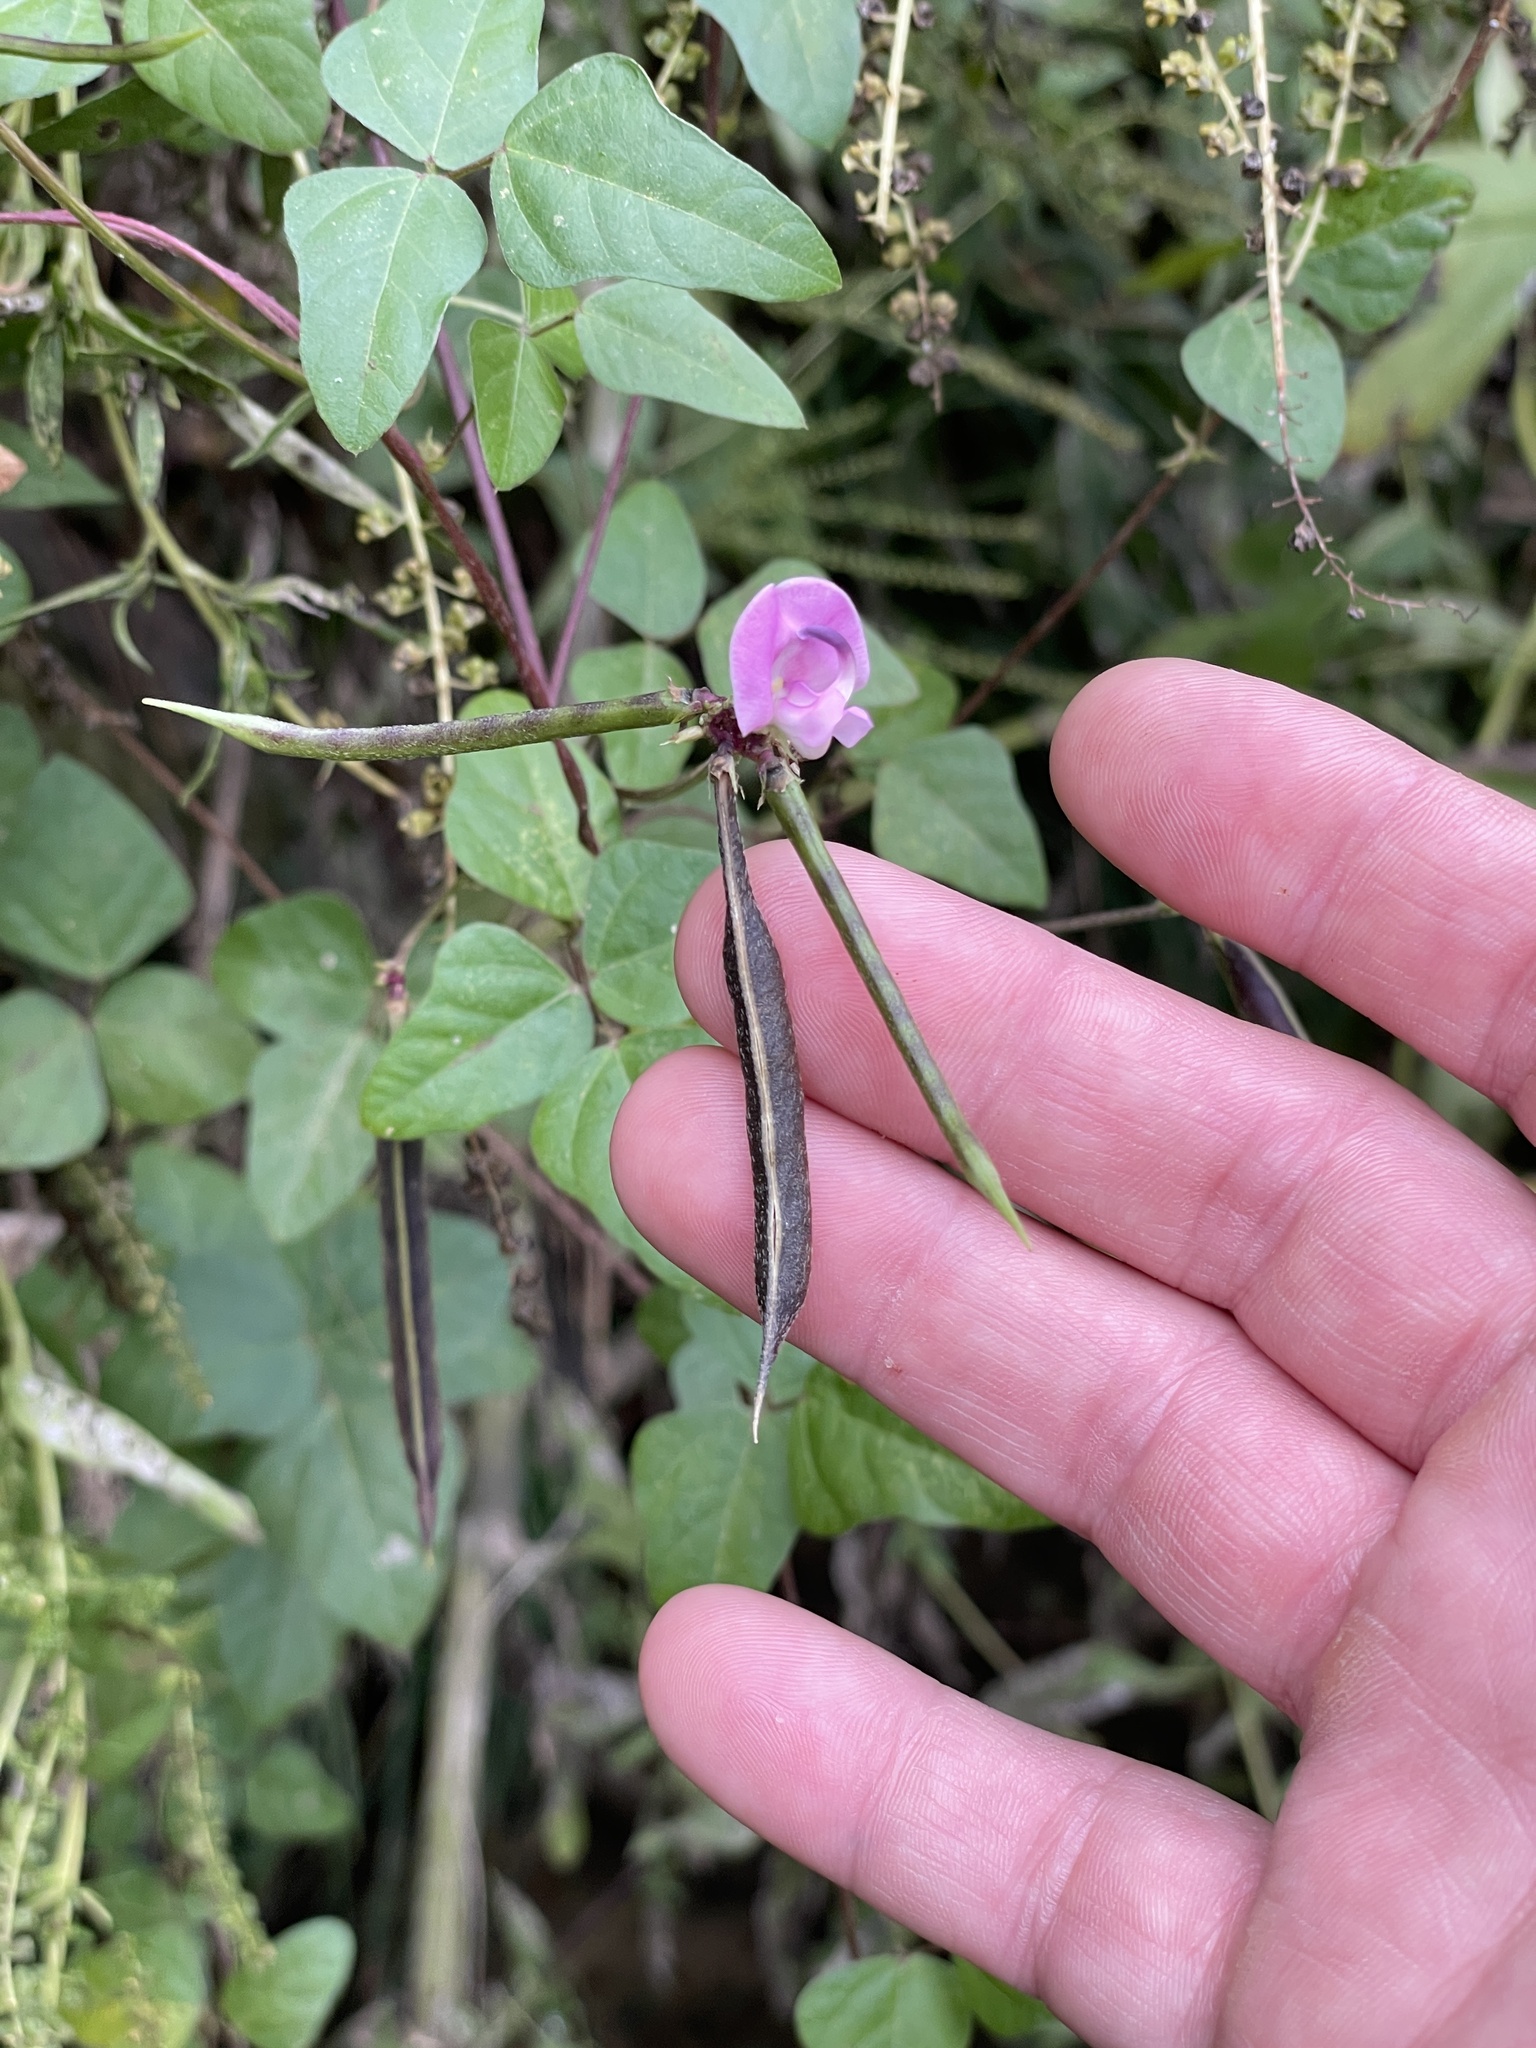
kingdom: Plantae
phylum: Tracheophyta
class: Magnoliopsida
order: Fabales
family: Fabaceae
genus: Strophostyles
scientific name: Strophostyles helvola
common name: Trailing wild bean
